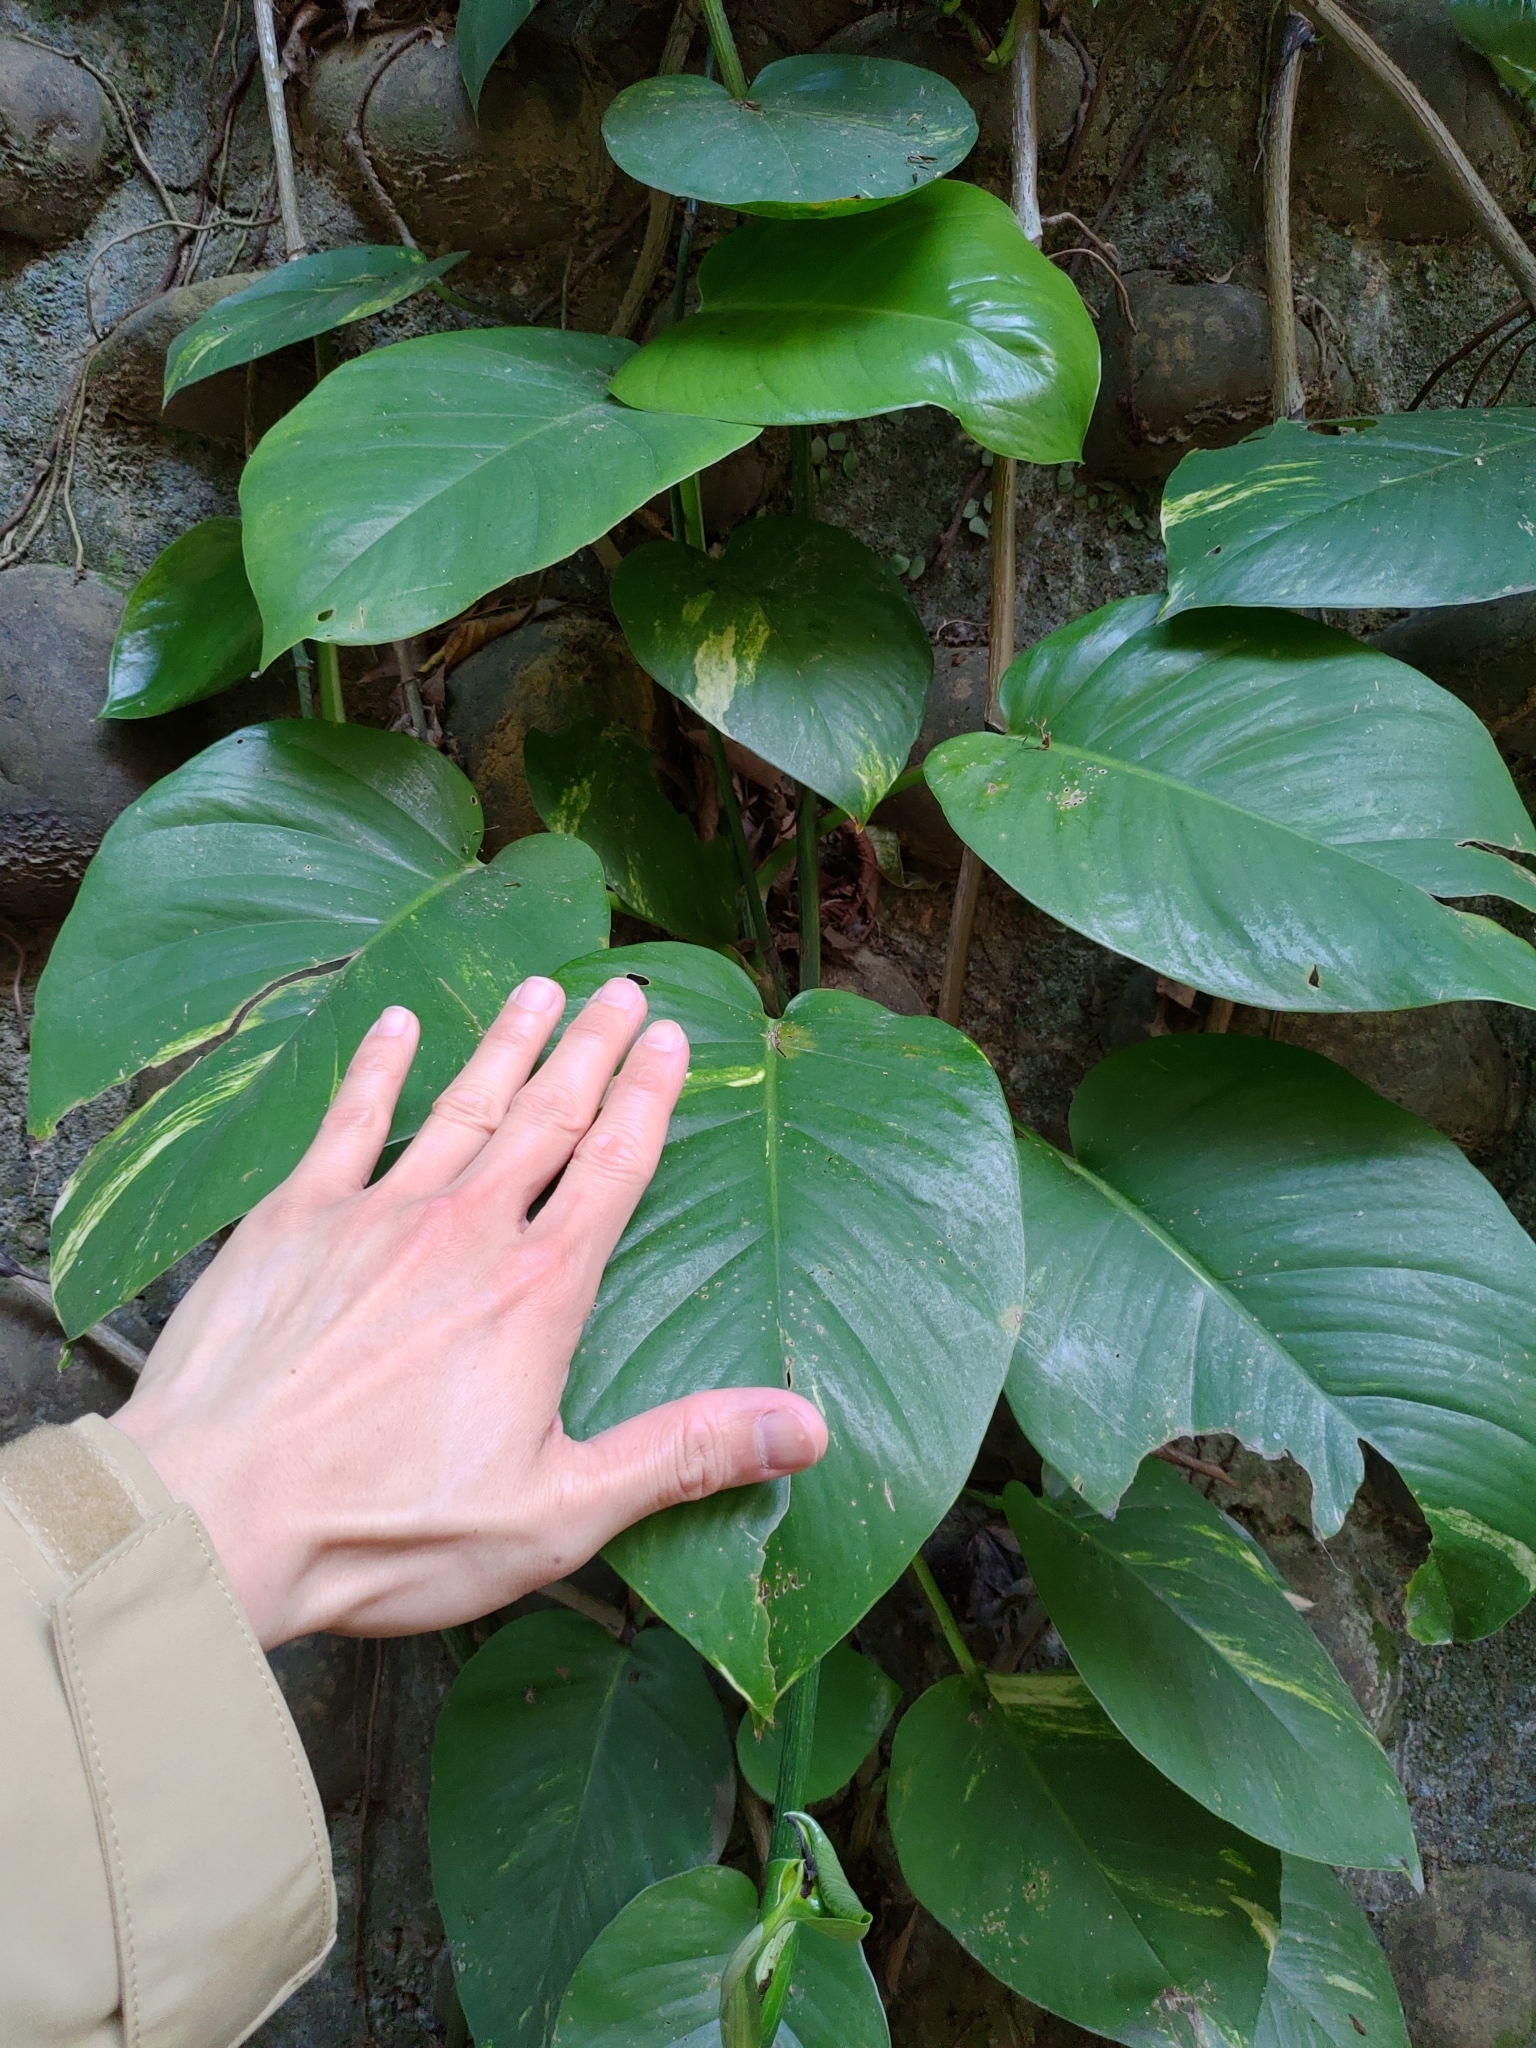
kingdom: Plantae
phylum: Tracheophyta
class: Liliopsida
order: Alismatales
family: Araceae
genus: Epipremnum
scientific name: Epipremnum aureum
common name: Golden hunter's-robe
